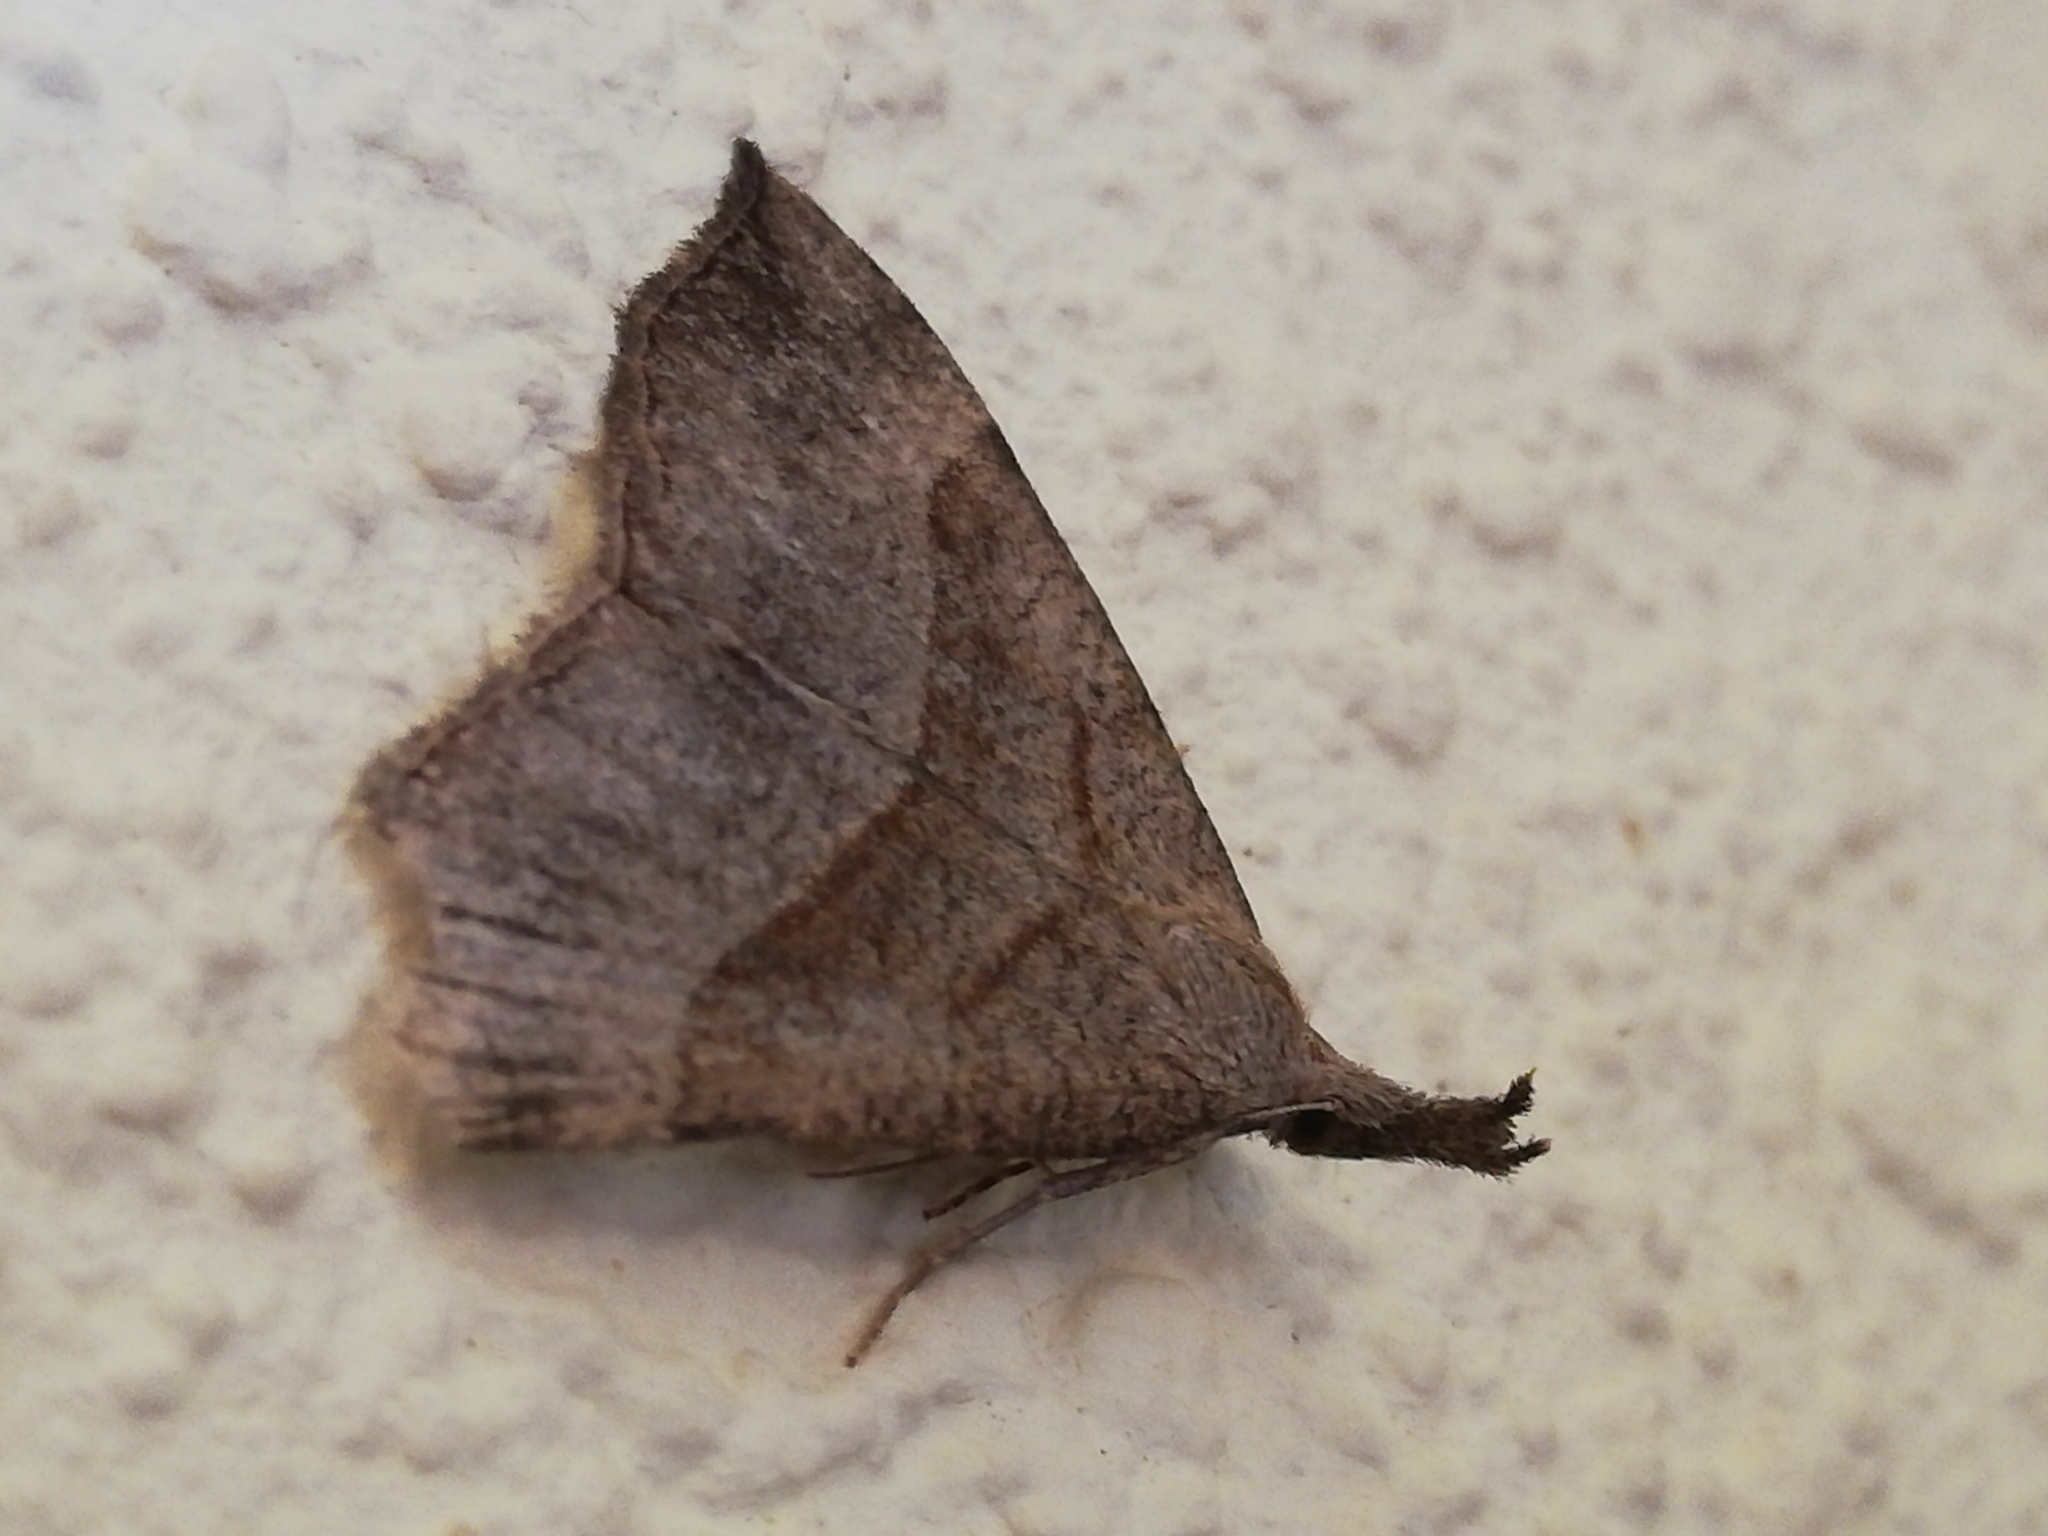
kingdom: Animalia
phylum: Arthropoda
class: Insecta
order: Lepidoptera
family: Erebidae
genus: Hypena
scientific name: Hypena proboscidalis
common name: Snout
